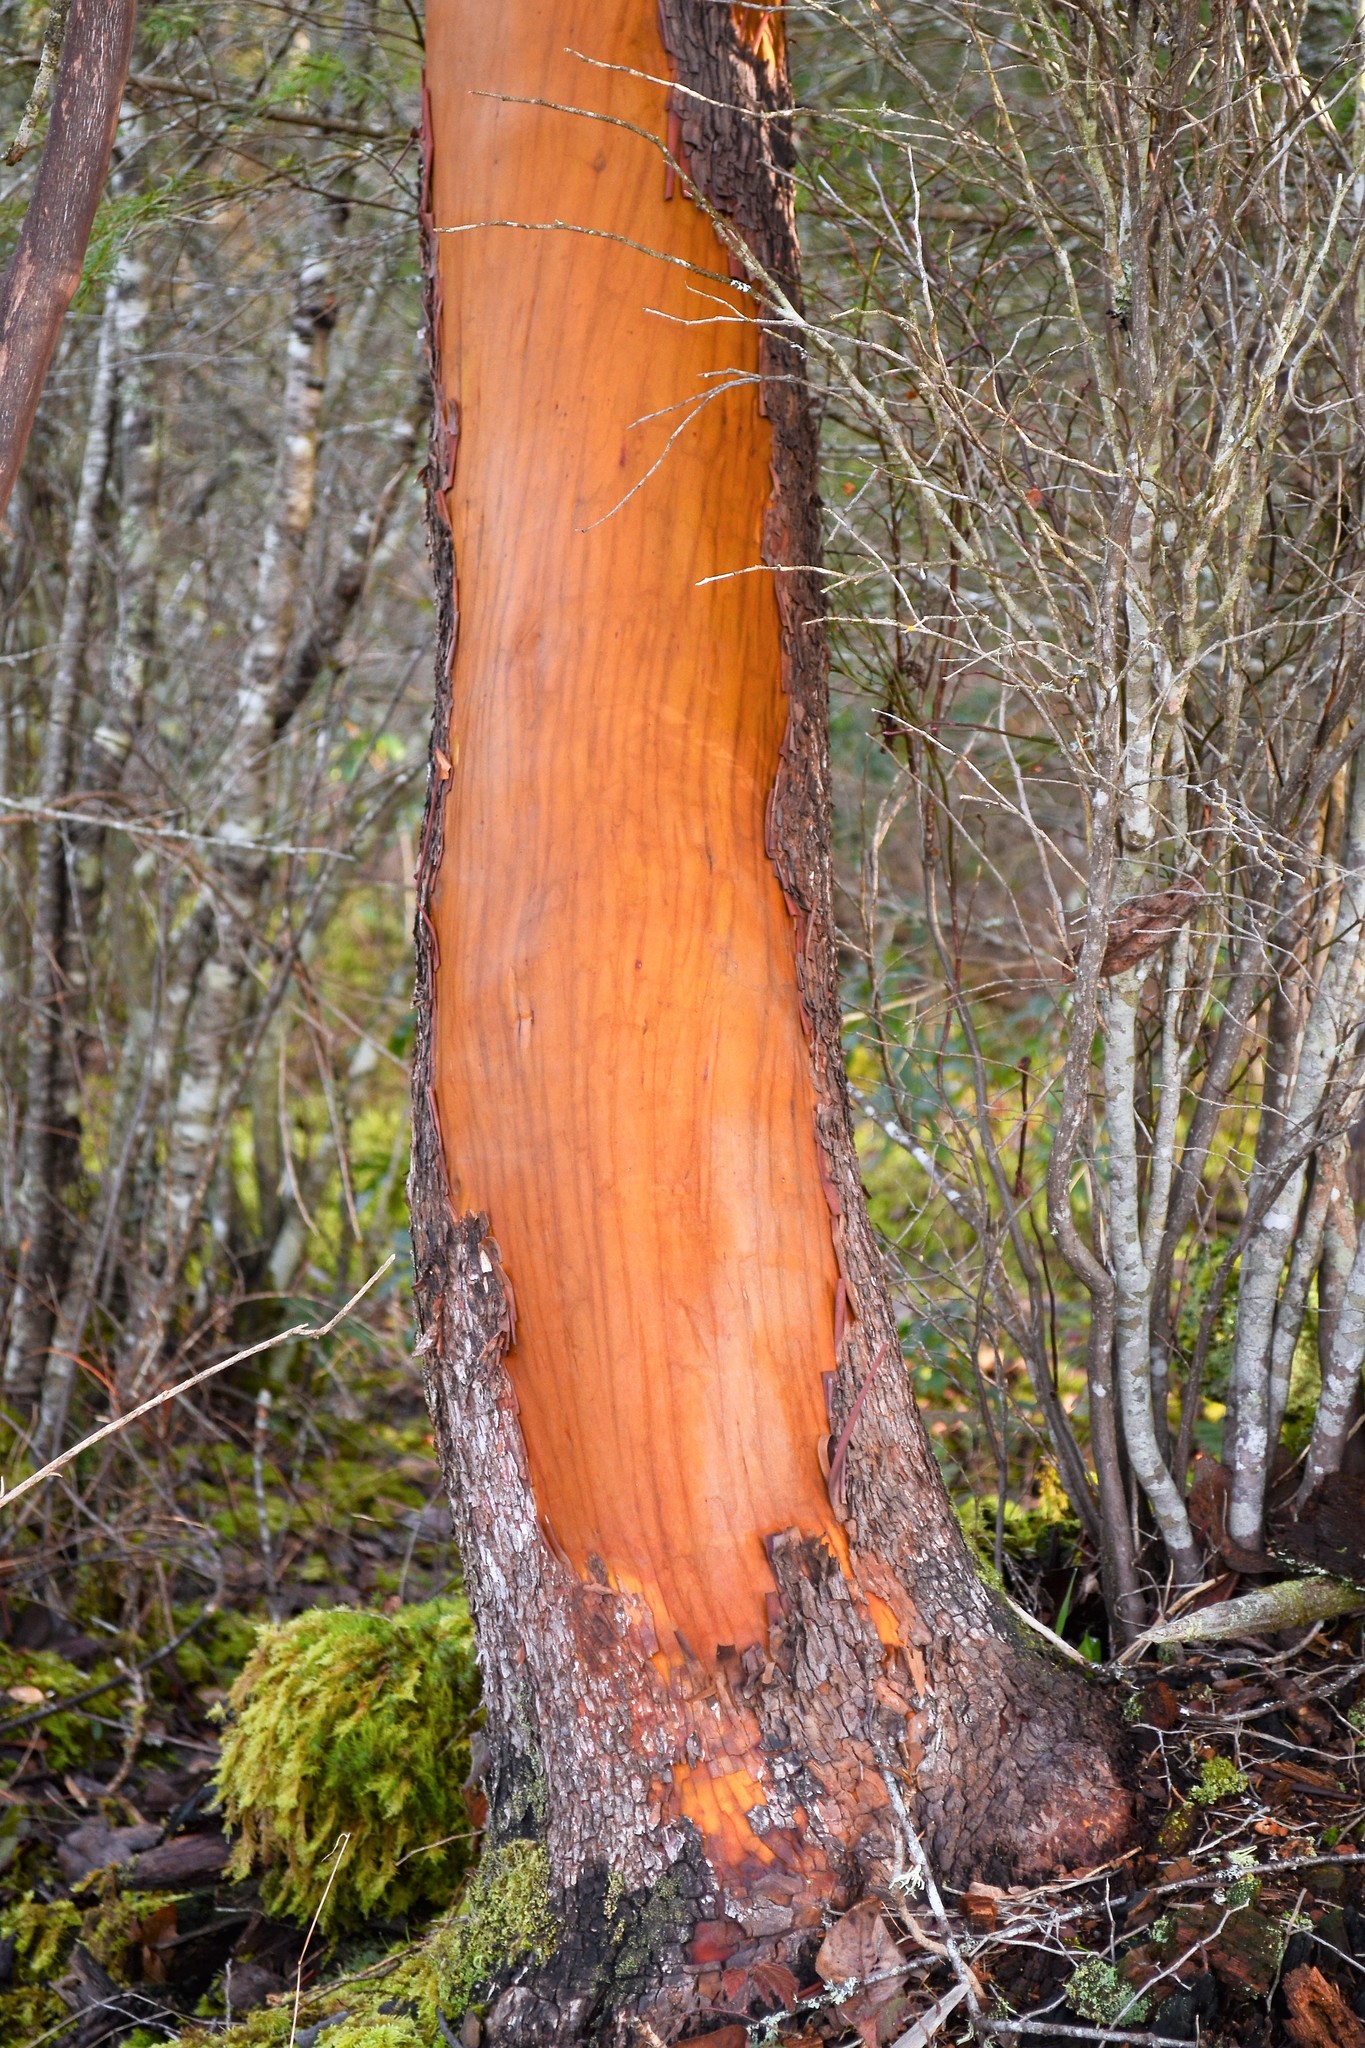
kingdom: Plantae
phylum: Tracheophyta
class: Magnoliopsida
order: Ericales
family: Ericaceae
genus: Arbutus
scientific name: Arbutus menziesii
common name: Pacific madrone
